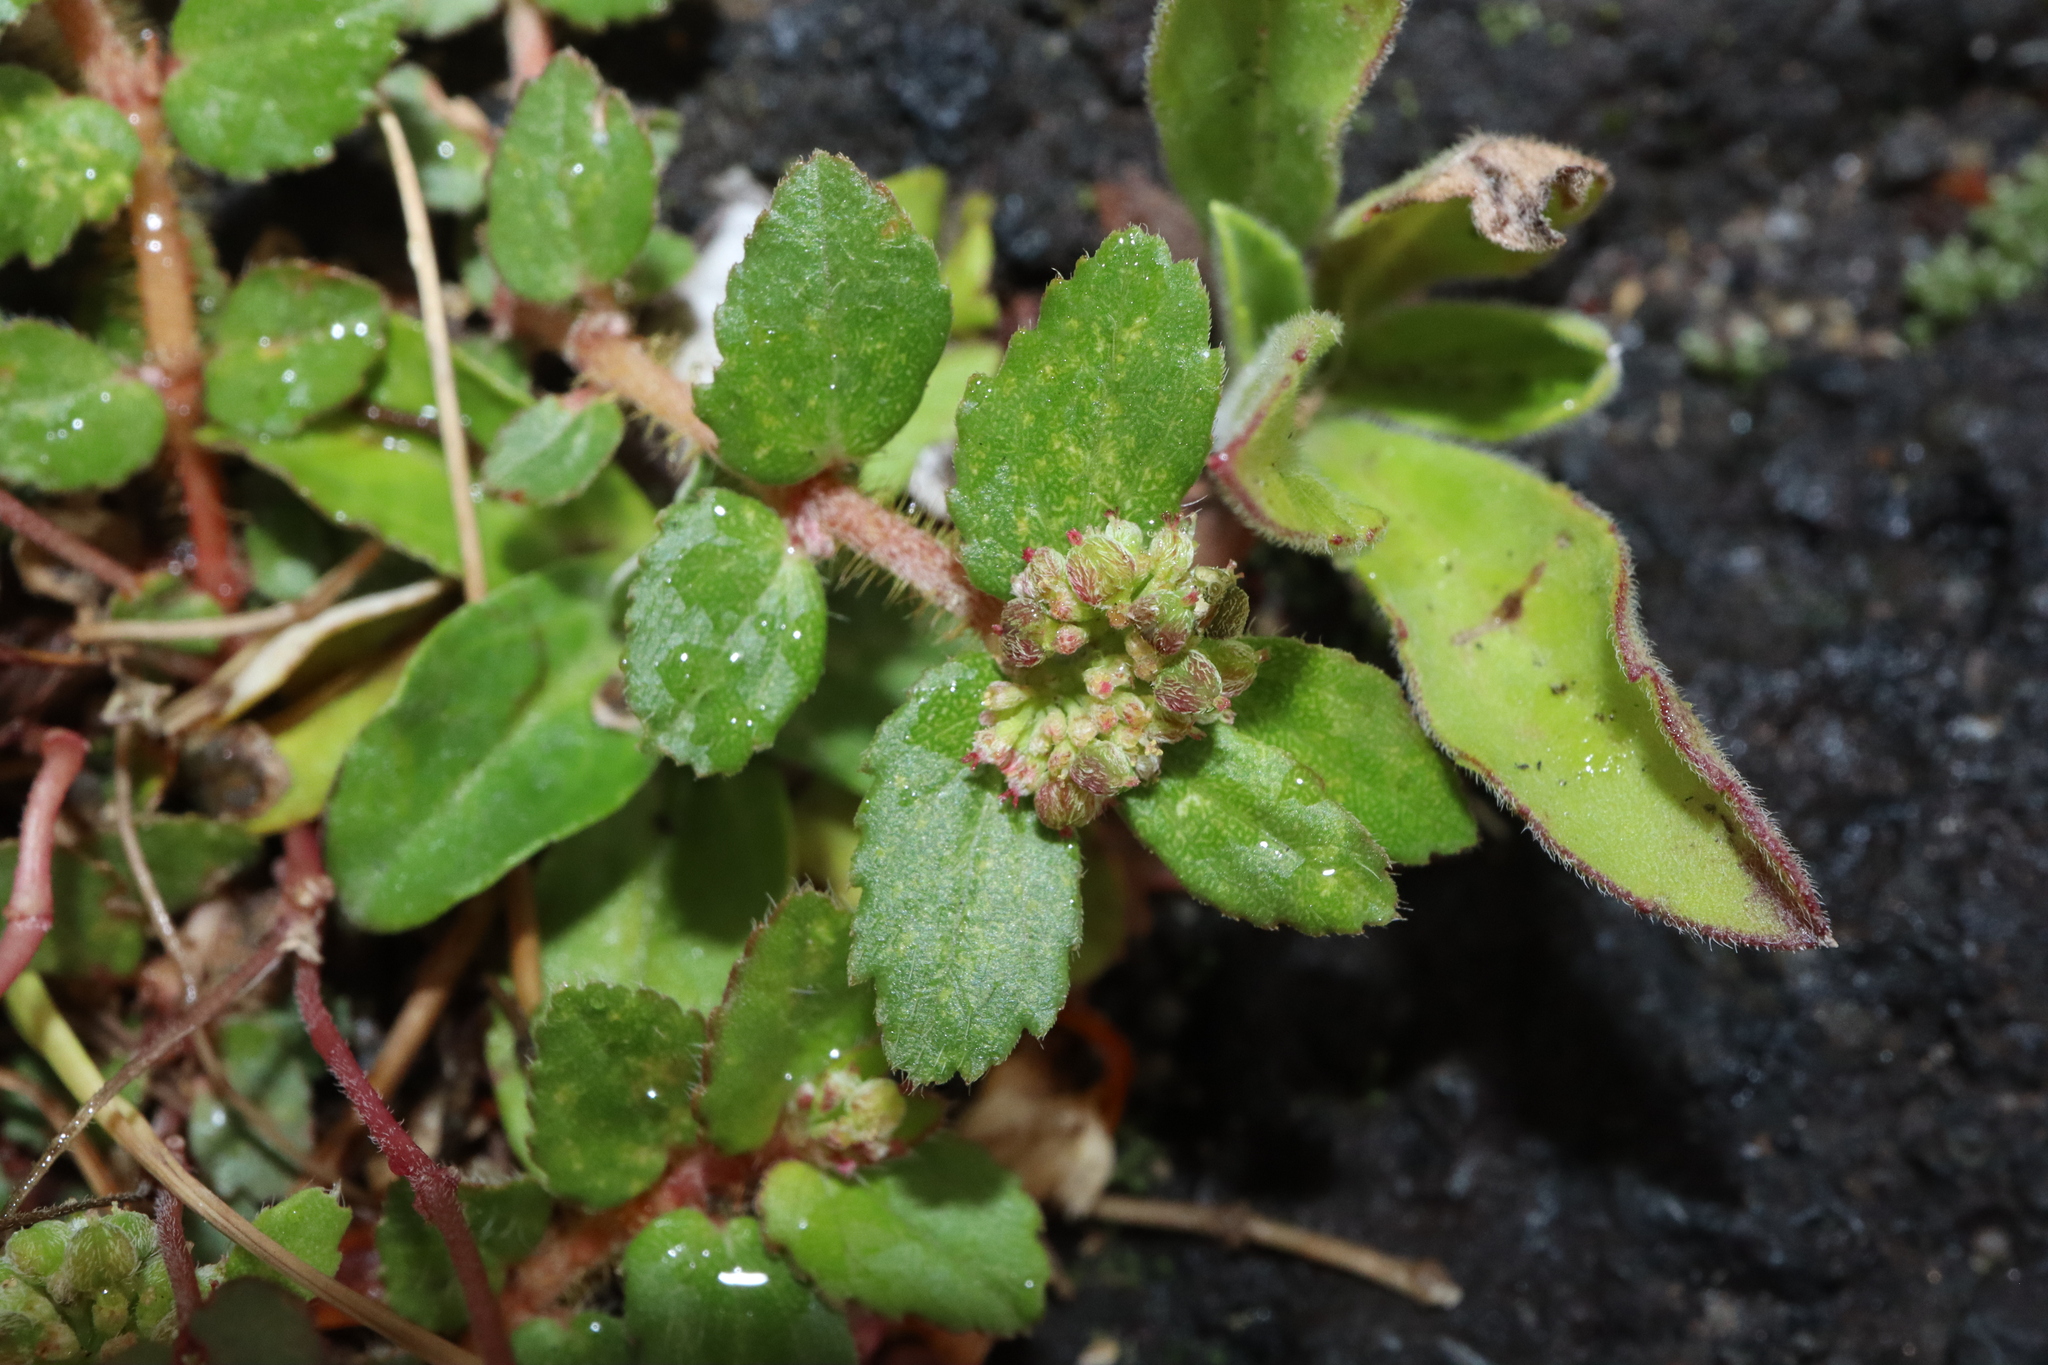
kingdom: Plantae
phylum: Tracheophyta
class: Magnoliopsida
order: Malpighiales
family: Euphorbiaceae
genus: Euphorbia
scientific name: Euphorbia ophthalmica
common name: Florida hammock sandmat
